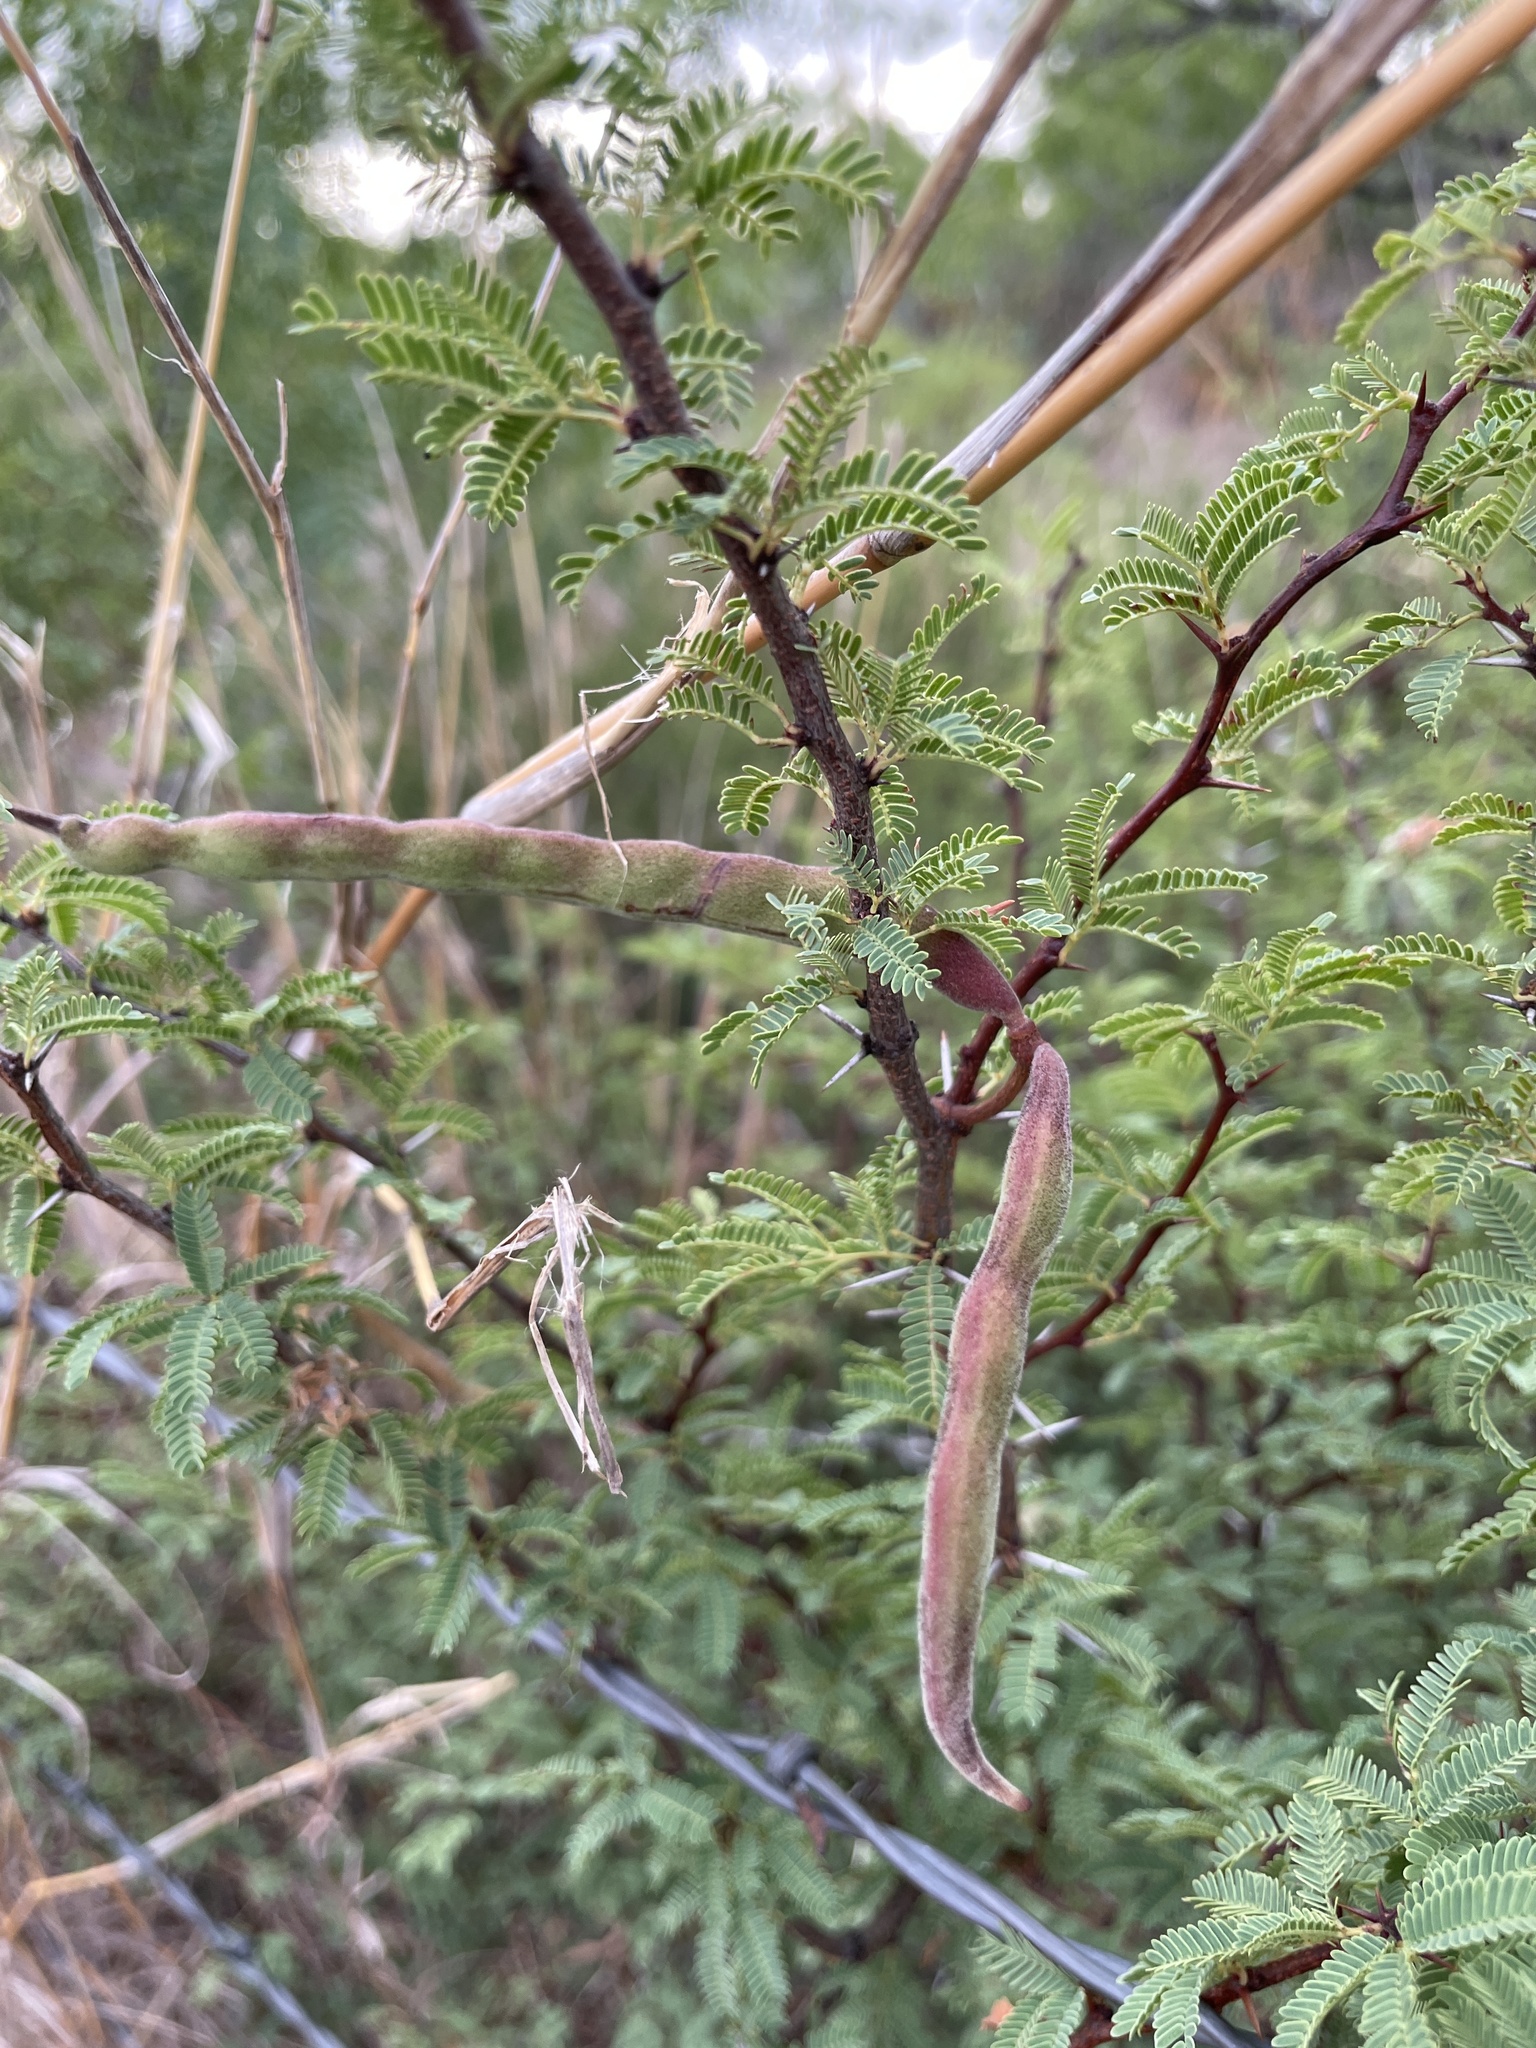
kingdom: Plantae
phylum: Tracheophyta
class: Magnoliopsida
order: Fabales
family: Fabaceae
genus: Vachellia
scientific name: Vachellia schaffneri
